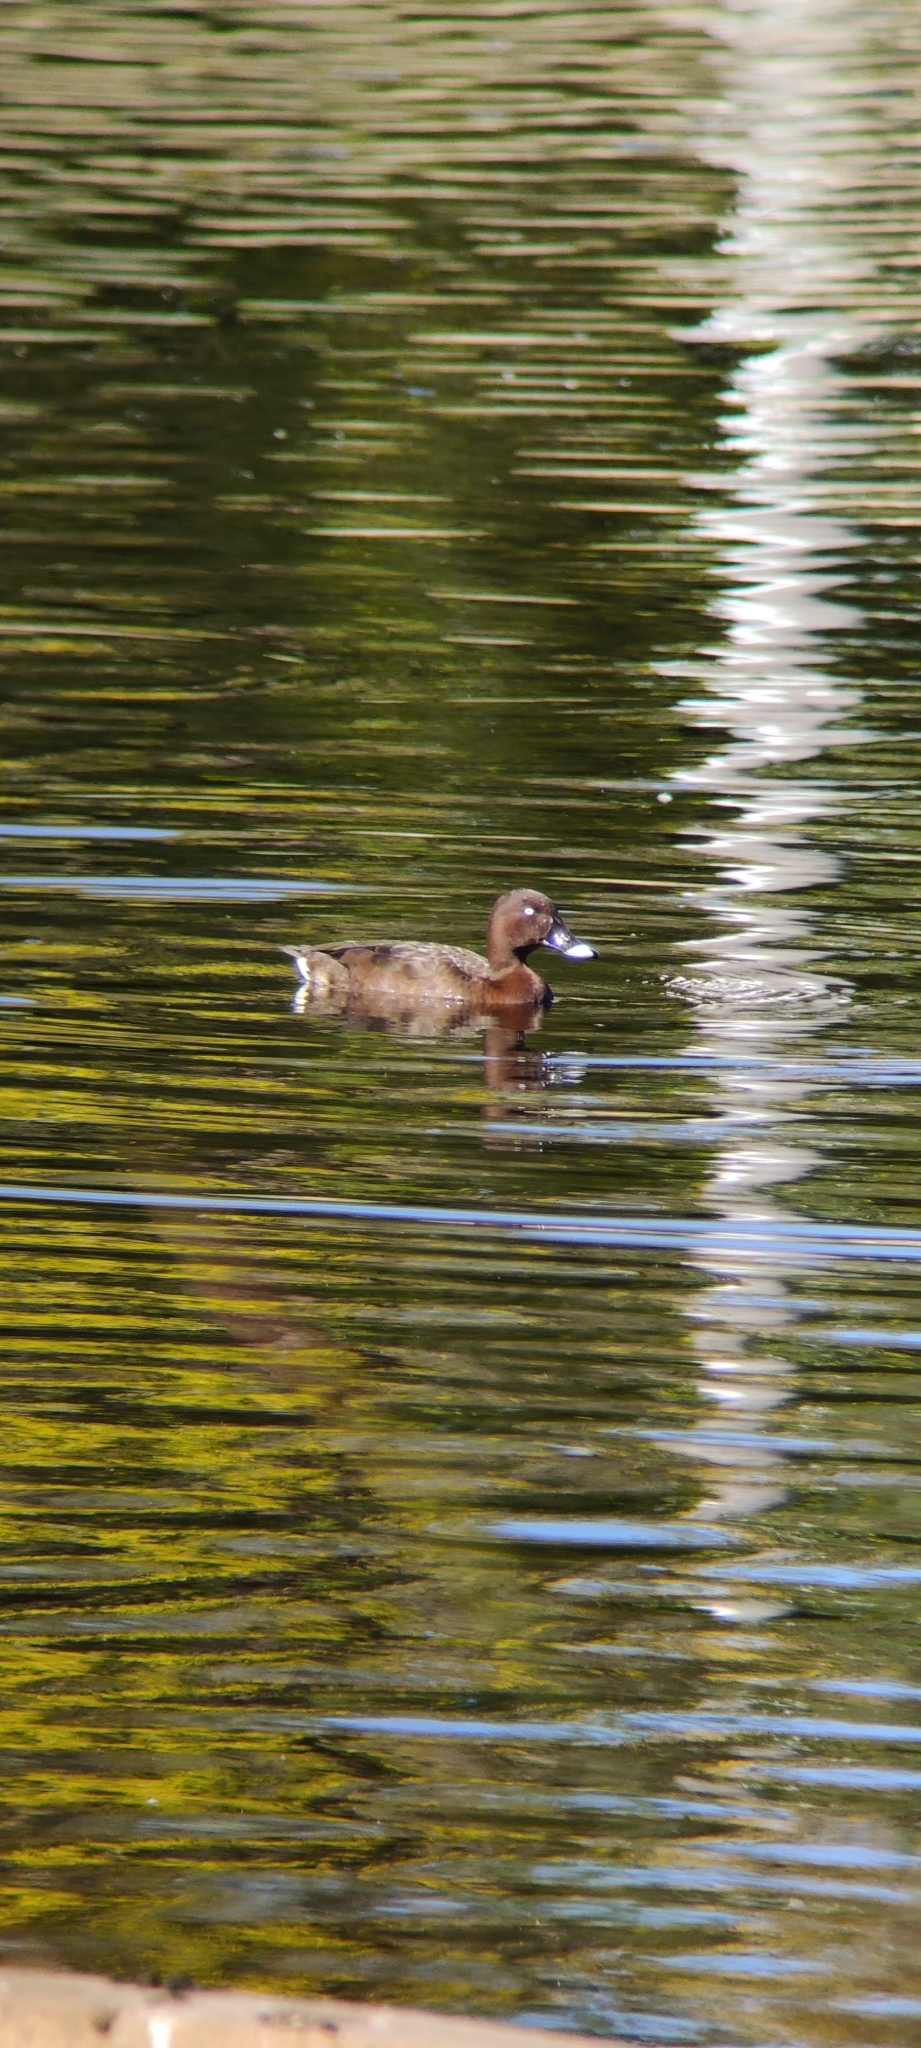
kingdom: Animalia
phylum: Chordata
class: Aves
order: Anseriformes
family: Anatidae
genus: Aythya
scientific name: Aythya australis
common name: Hardhead
